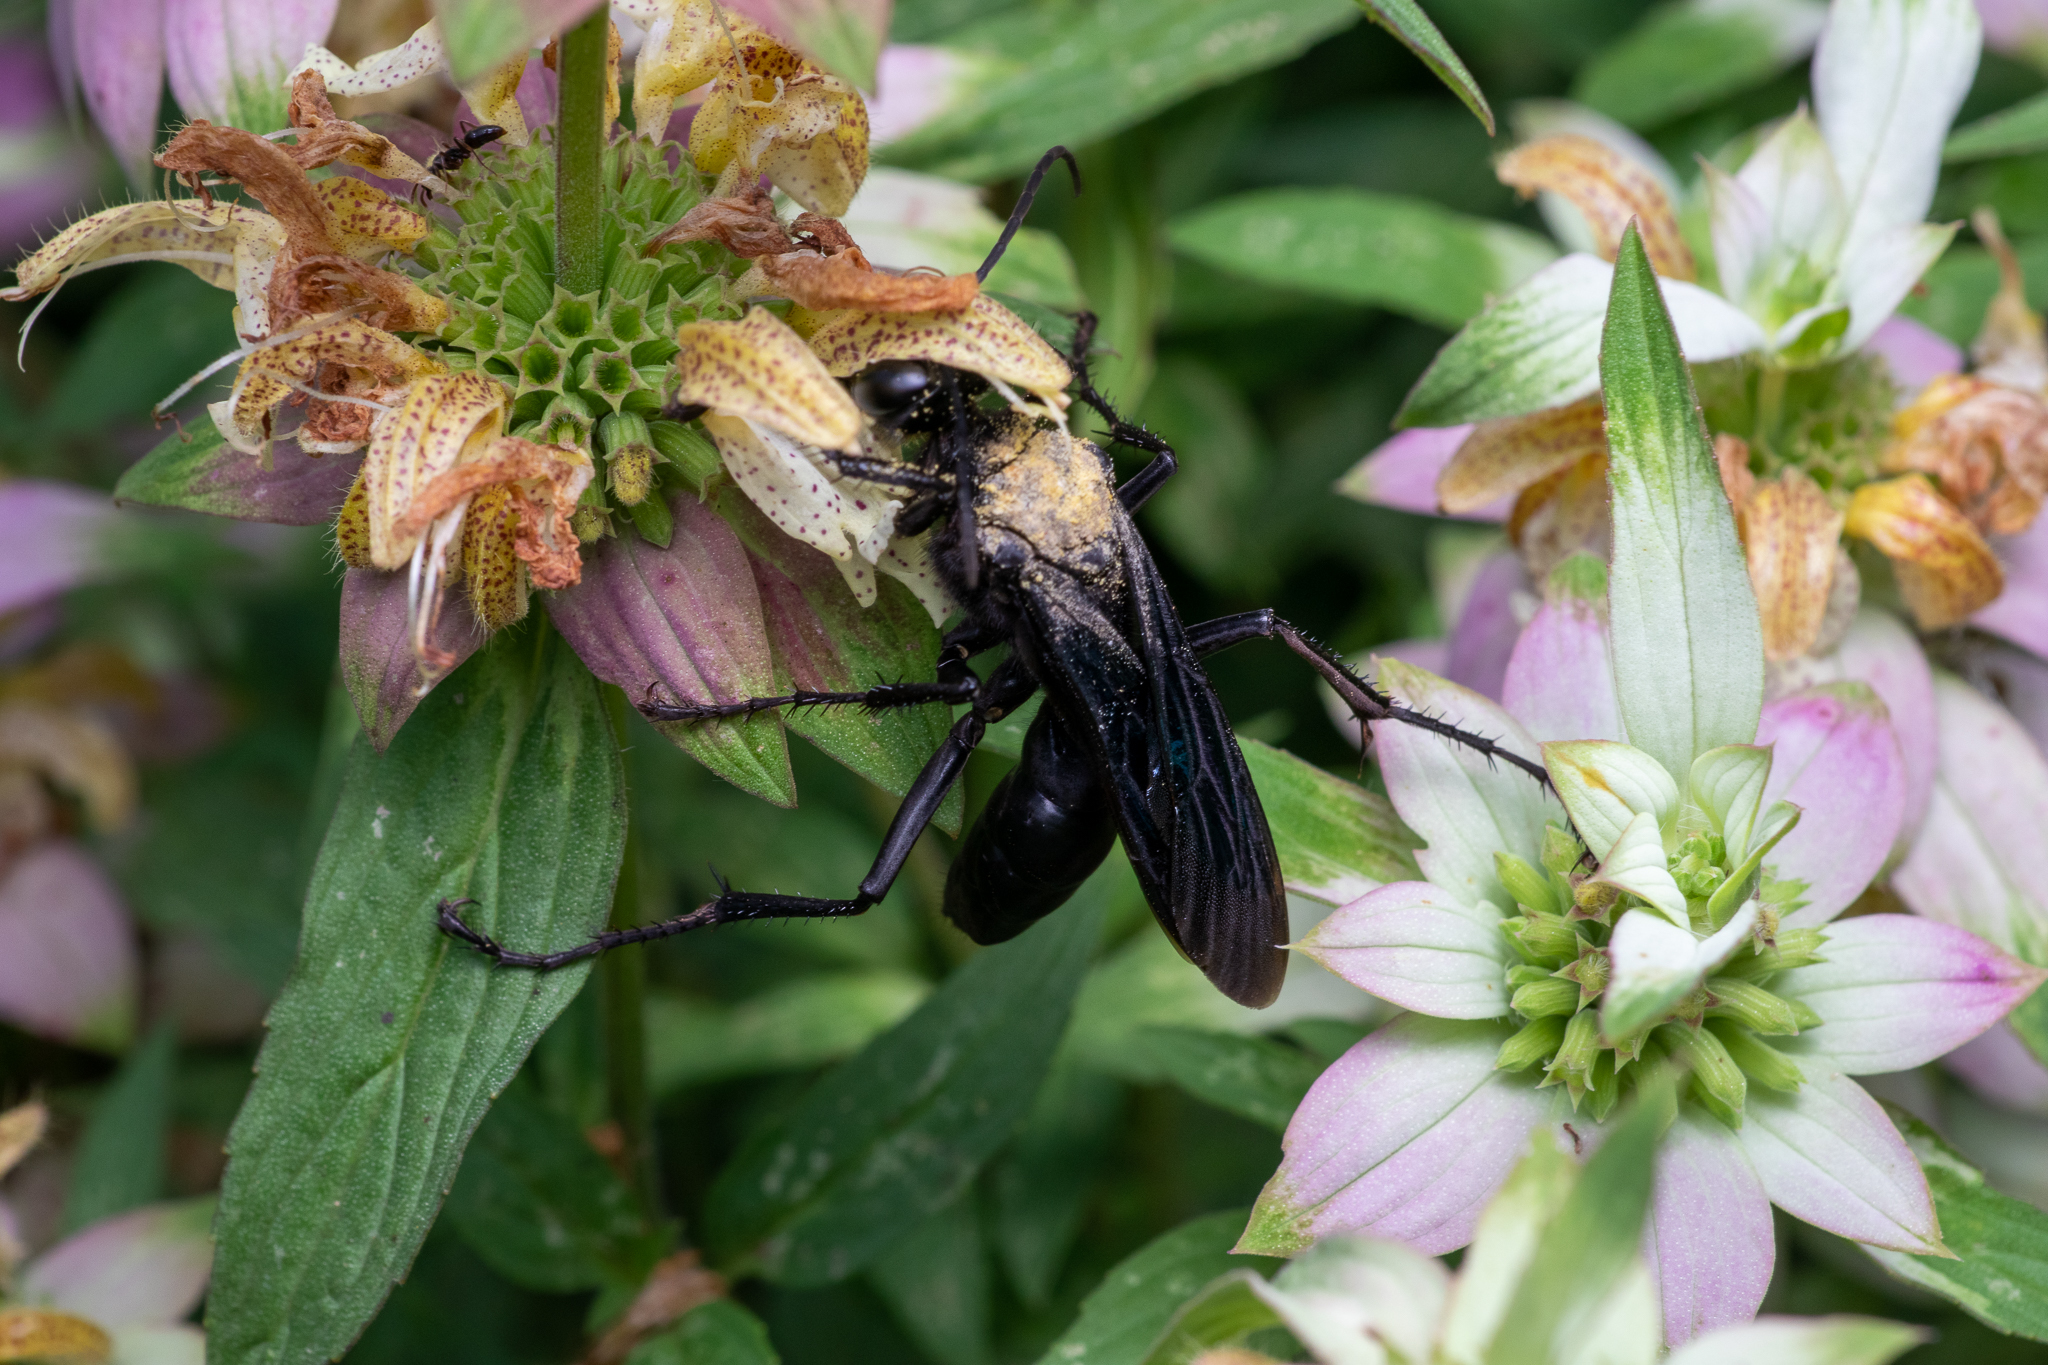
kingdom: Animalia
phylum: Arthropoda
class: Insecta
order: Hymenoptera
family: Sphecidae
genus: Sphex
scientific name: Sphex pensylvanicus
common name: Great black digger wasp
